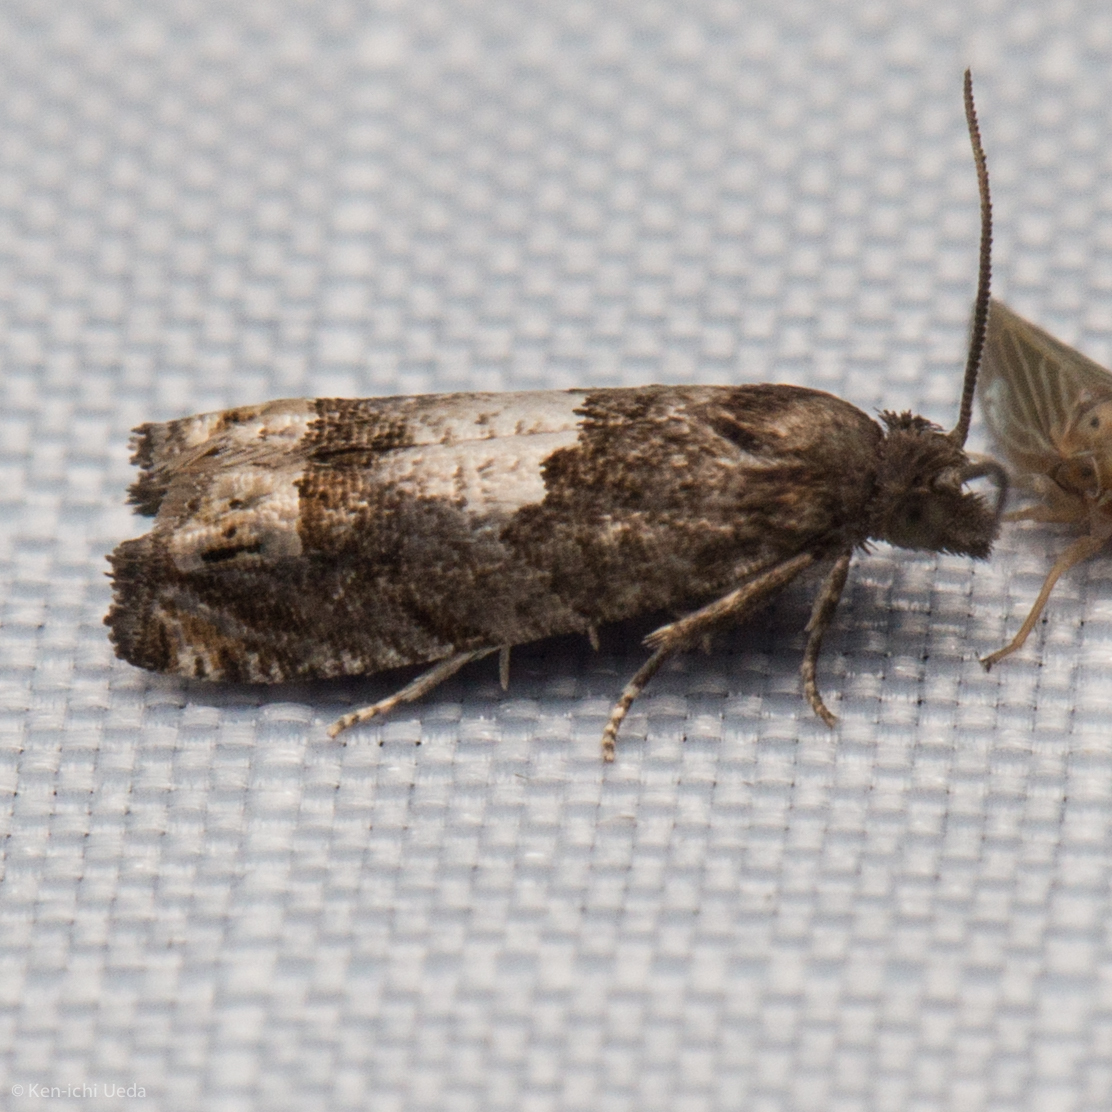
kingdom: Animalia
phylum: Arthropoda
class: Insecta
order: Lepidoptera
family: Tortricidae
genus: Eucosma
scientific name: Eucosma parmatana
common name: Aster eucosma moth
